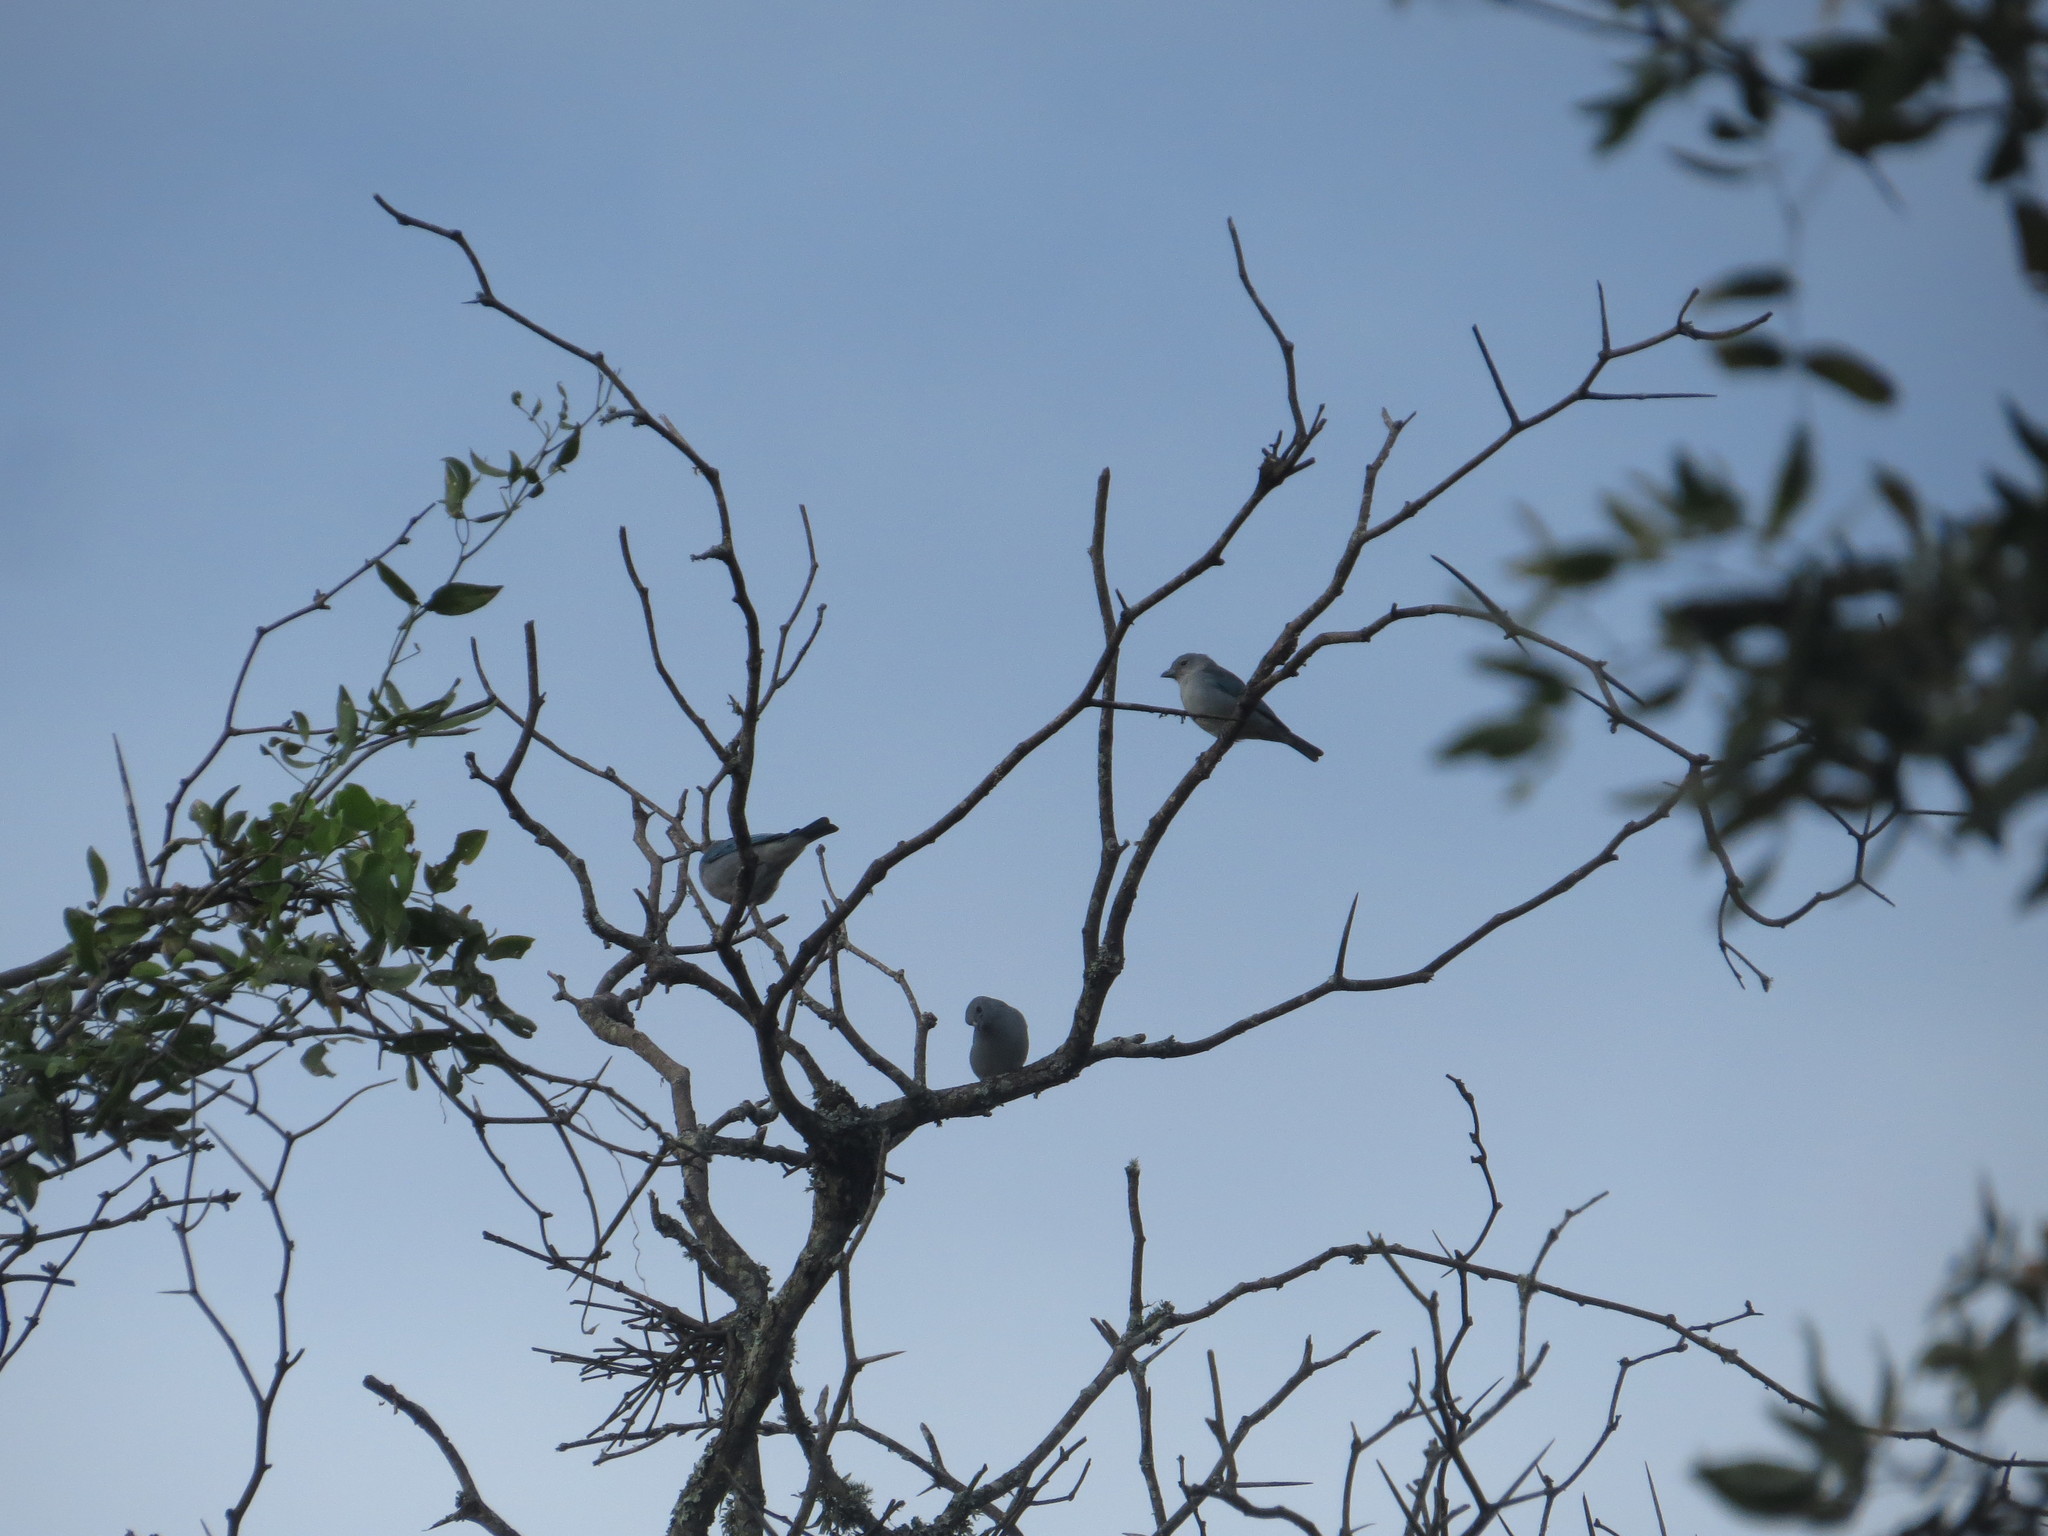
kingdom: Animalia
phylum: Chordata
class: Aves
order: Passeriformes
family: Thraupidae
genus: Thraupis
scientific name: Thraupis sayaca
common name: Sayaca tanager
